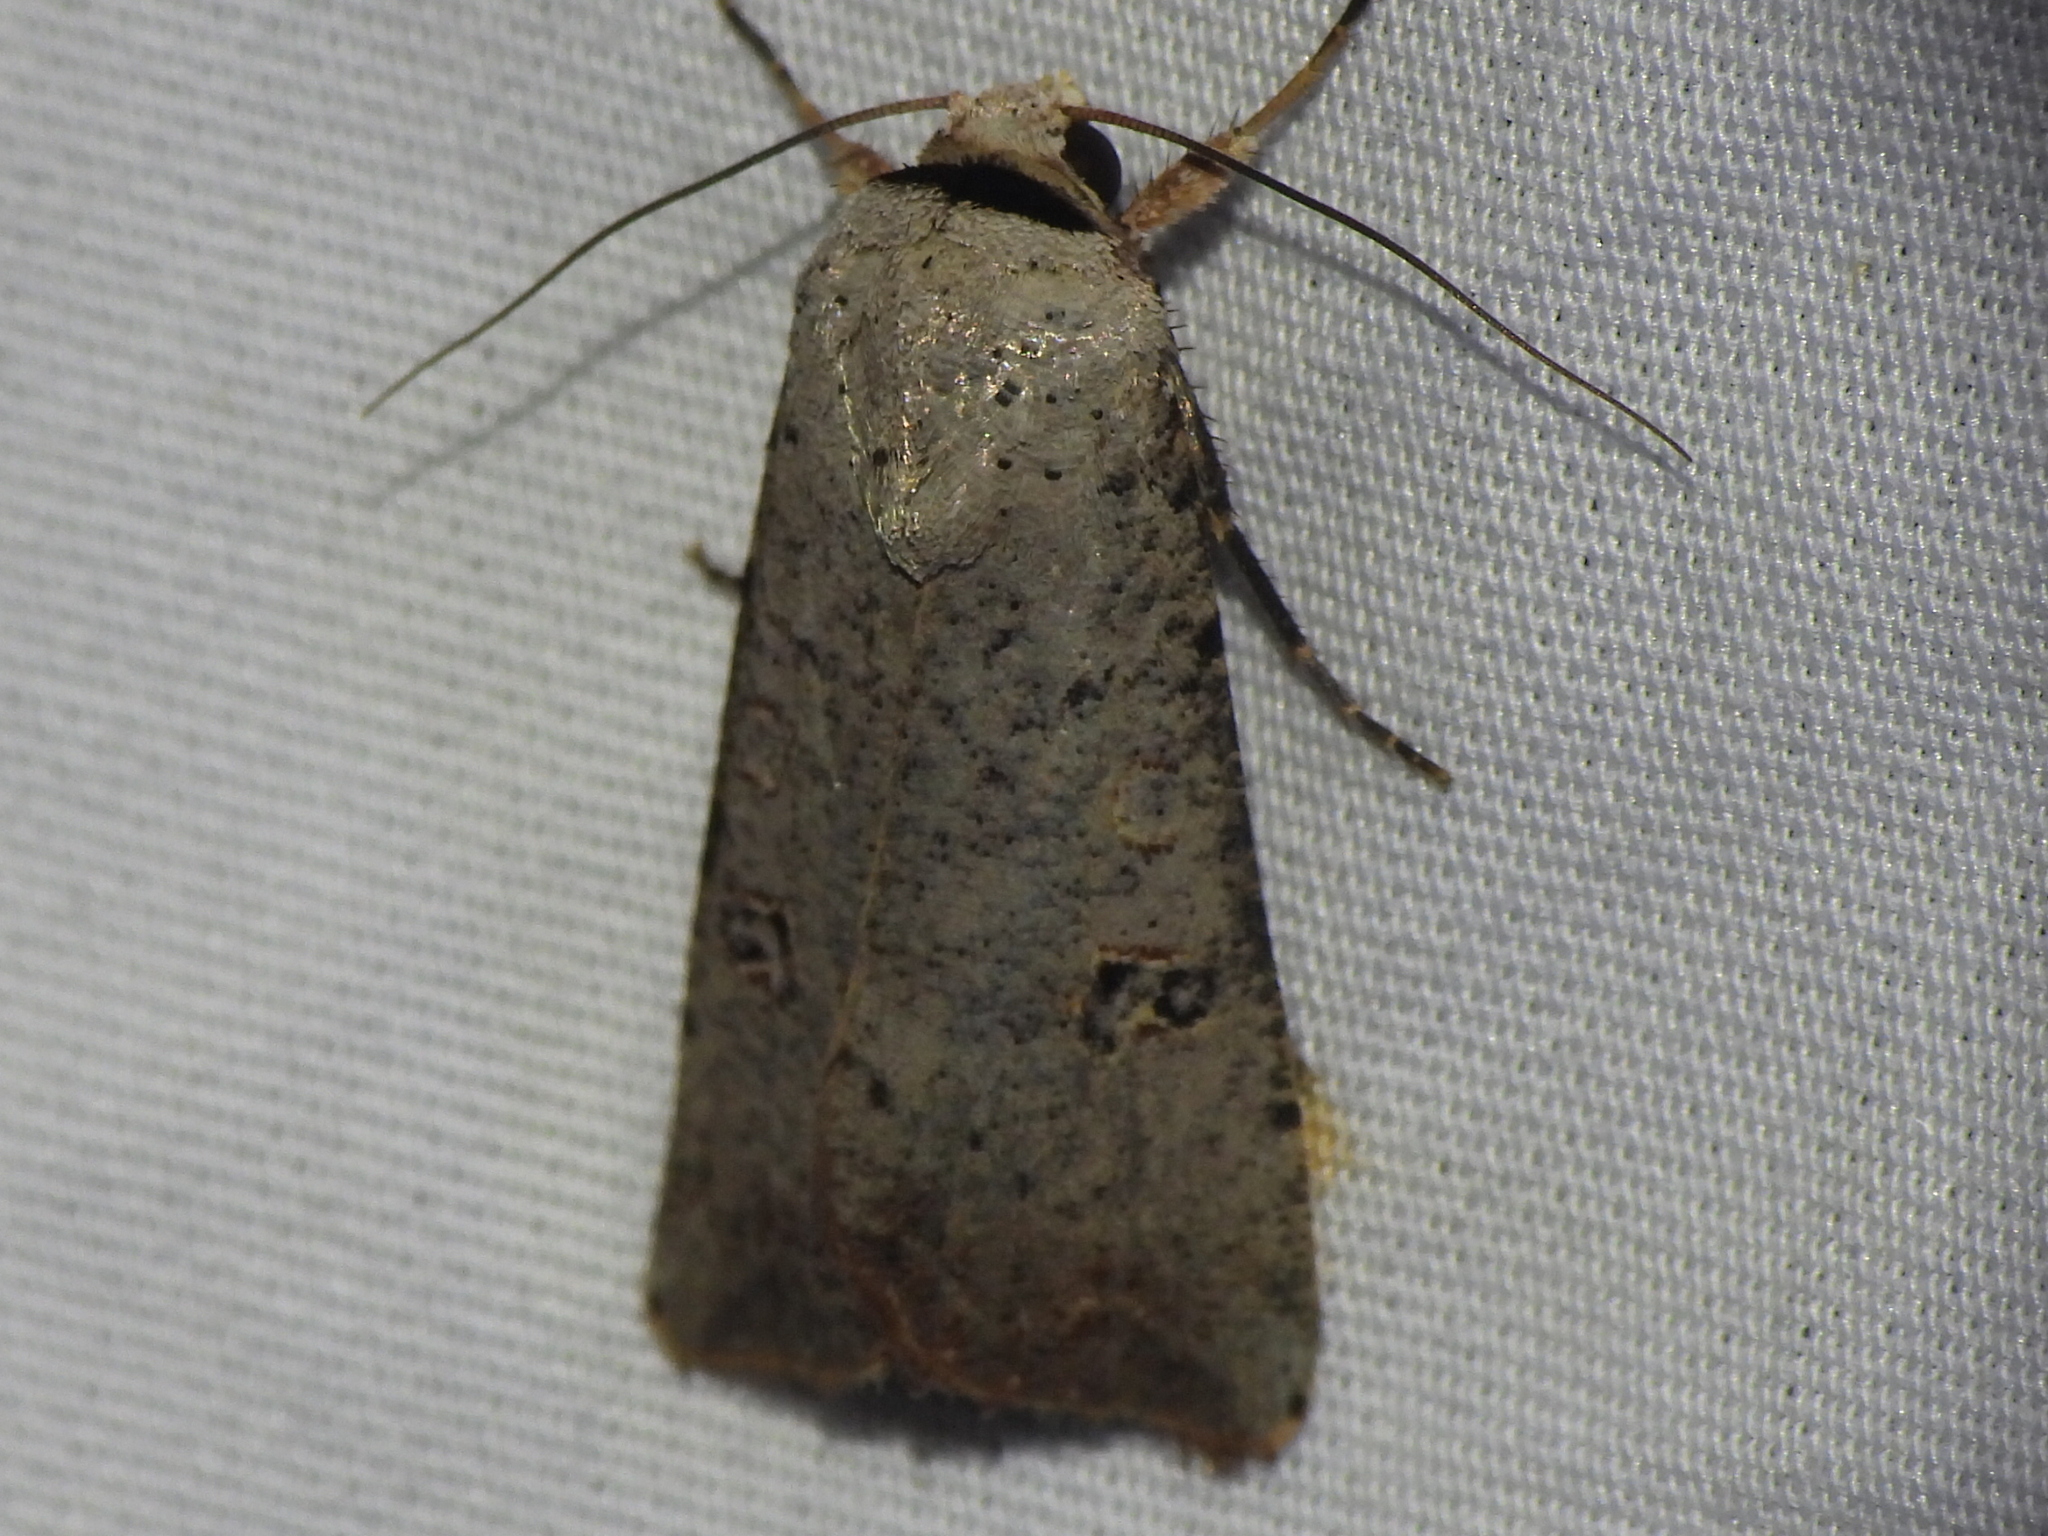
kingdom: Animalia
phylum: Arthropoda
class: Insecta
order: Lepidoptera
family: Noctuidae
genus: Anicla
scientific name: Anicla infecta
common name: Green cutworm
